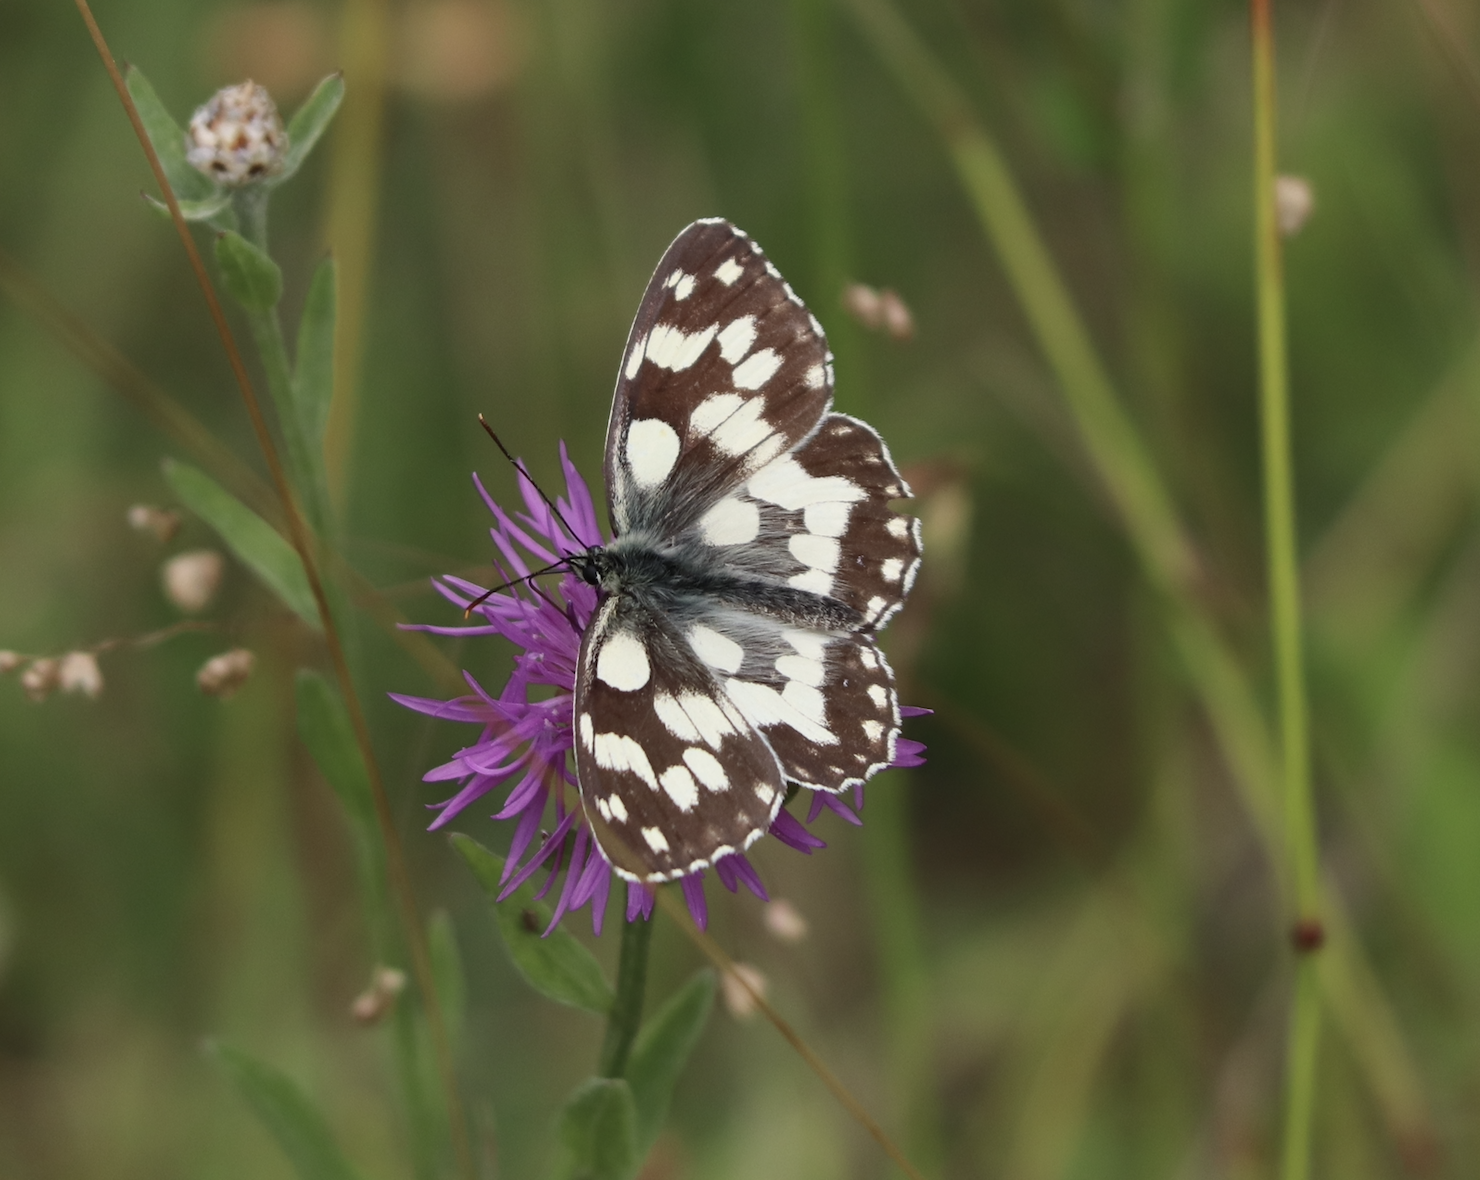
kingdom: Animalia
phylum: Arthropoda
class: Insecta
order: Lepidoptera
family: Nymphalidae
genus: Melanargia
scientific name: Melanargia galathea
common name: Marbled white
